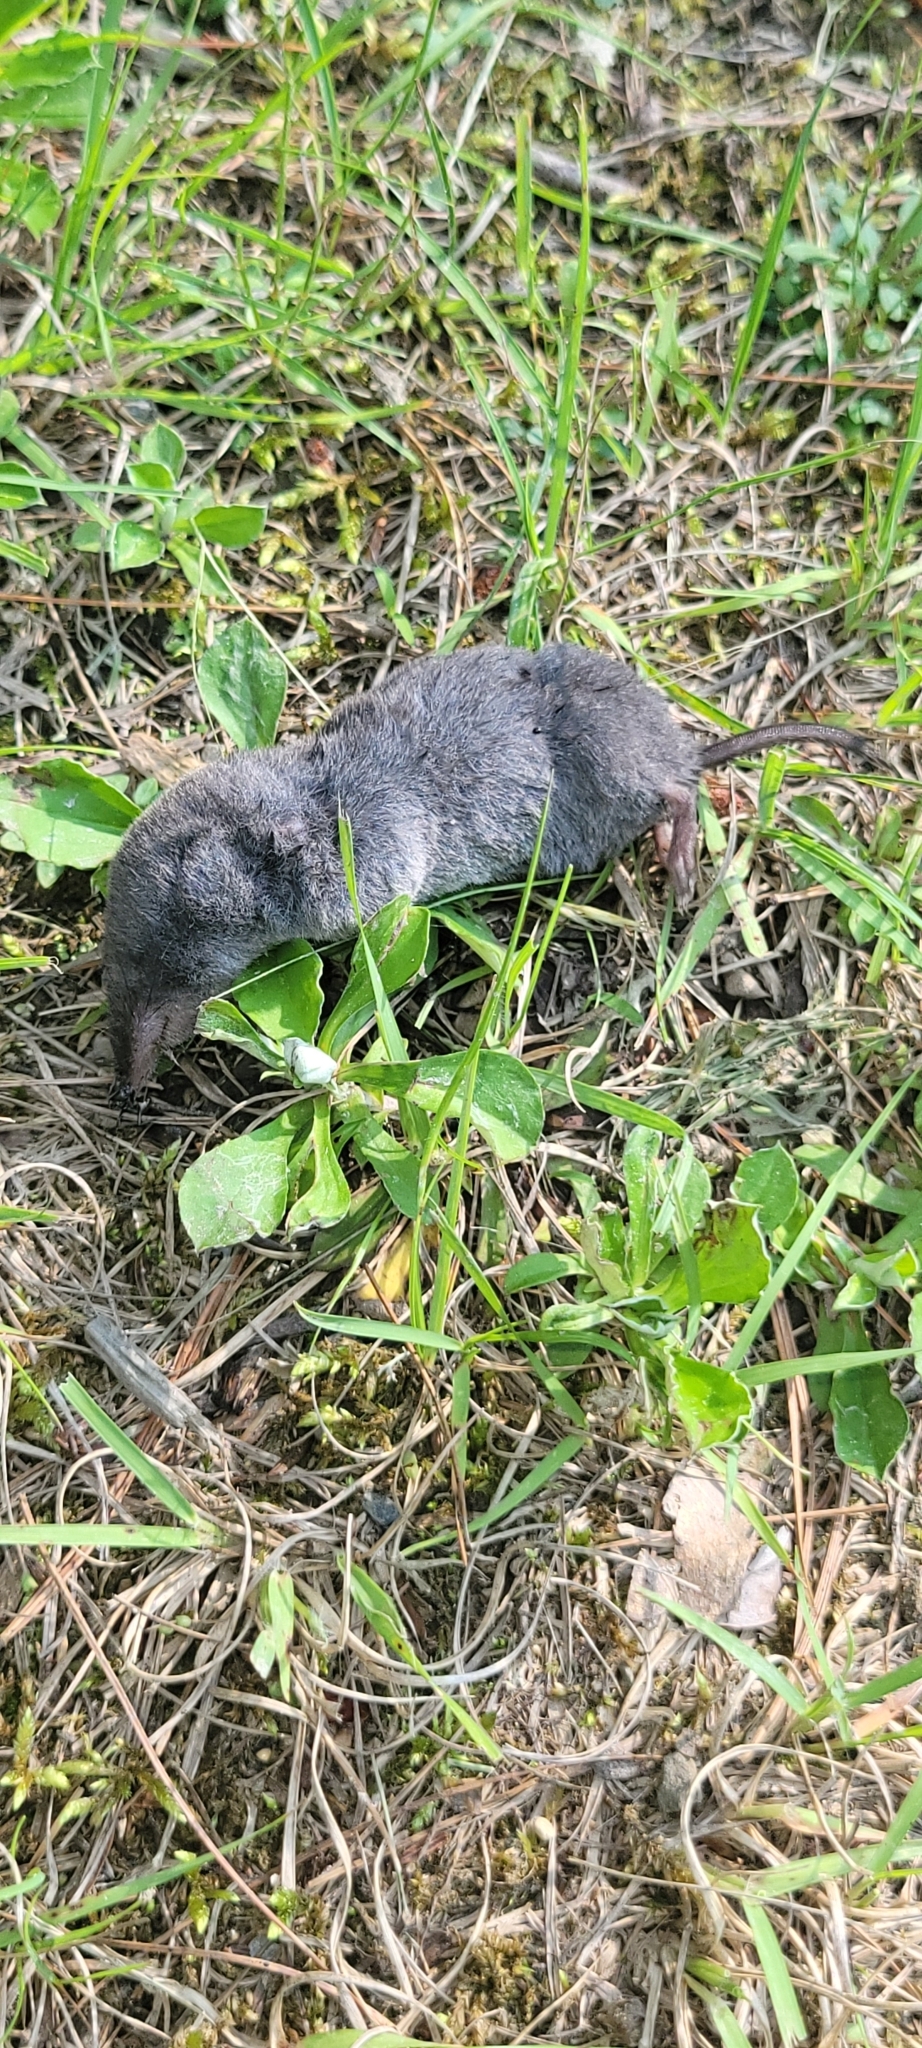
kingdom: Animalia
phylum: Chordata
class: Mammalia
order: Soricomorpha
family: Soricidae
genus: Blarina
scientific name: Blarina brevicauda
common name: Northern short-tailed shrew
